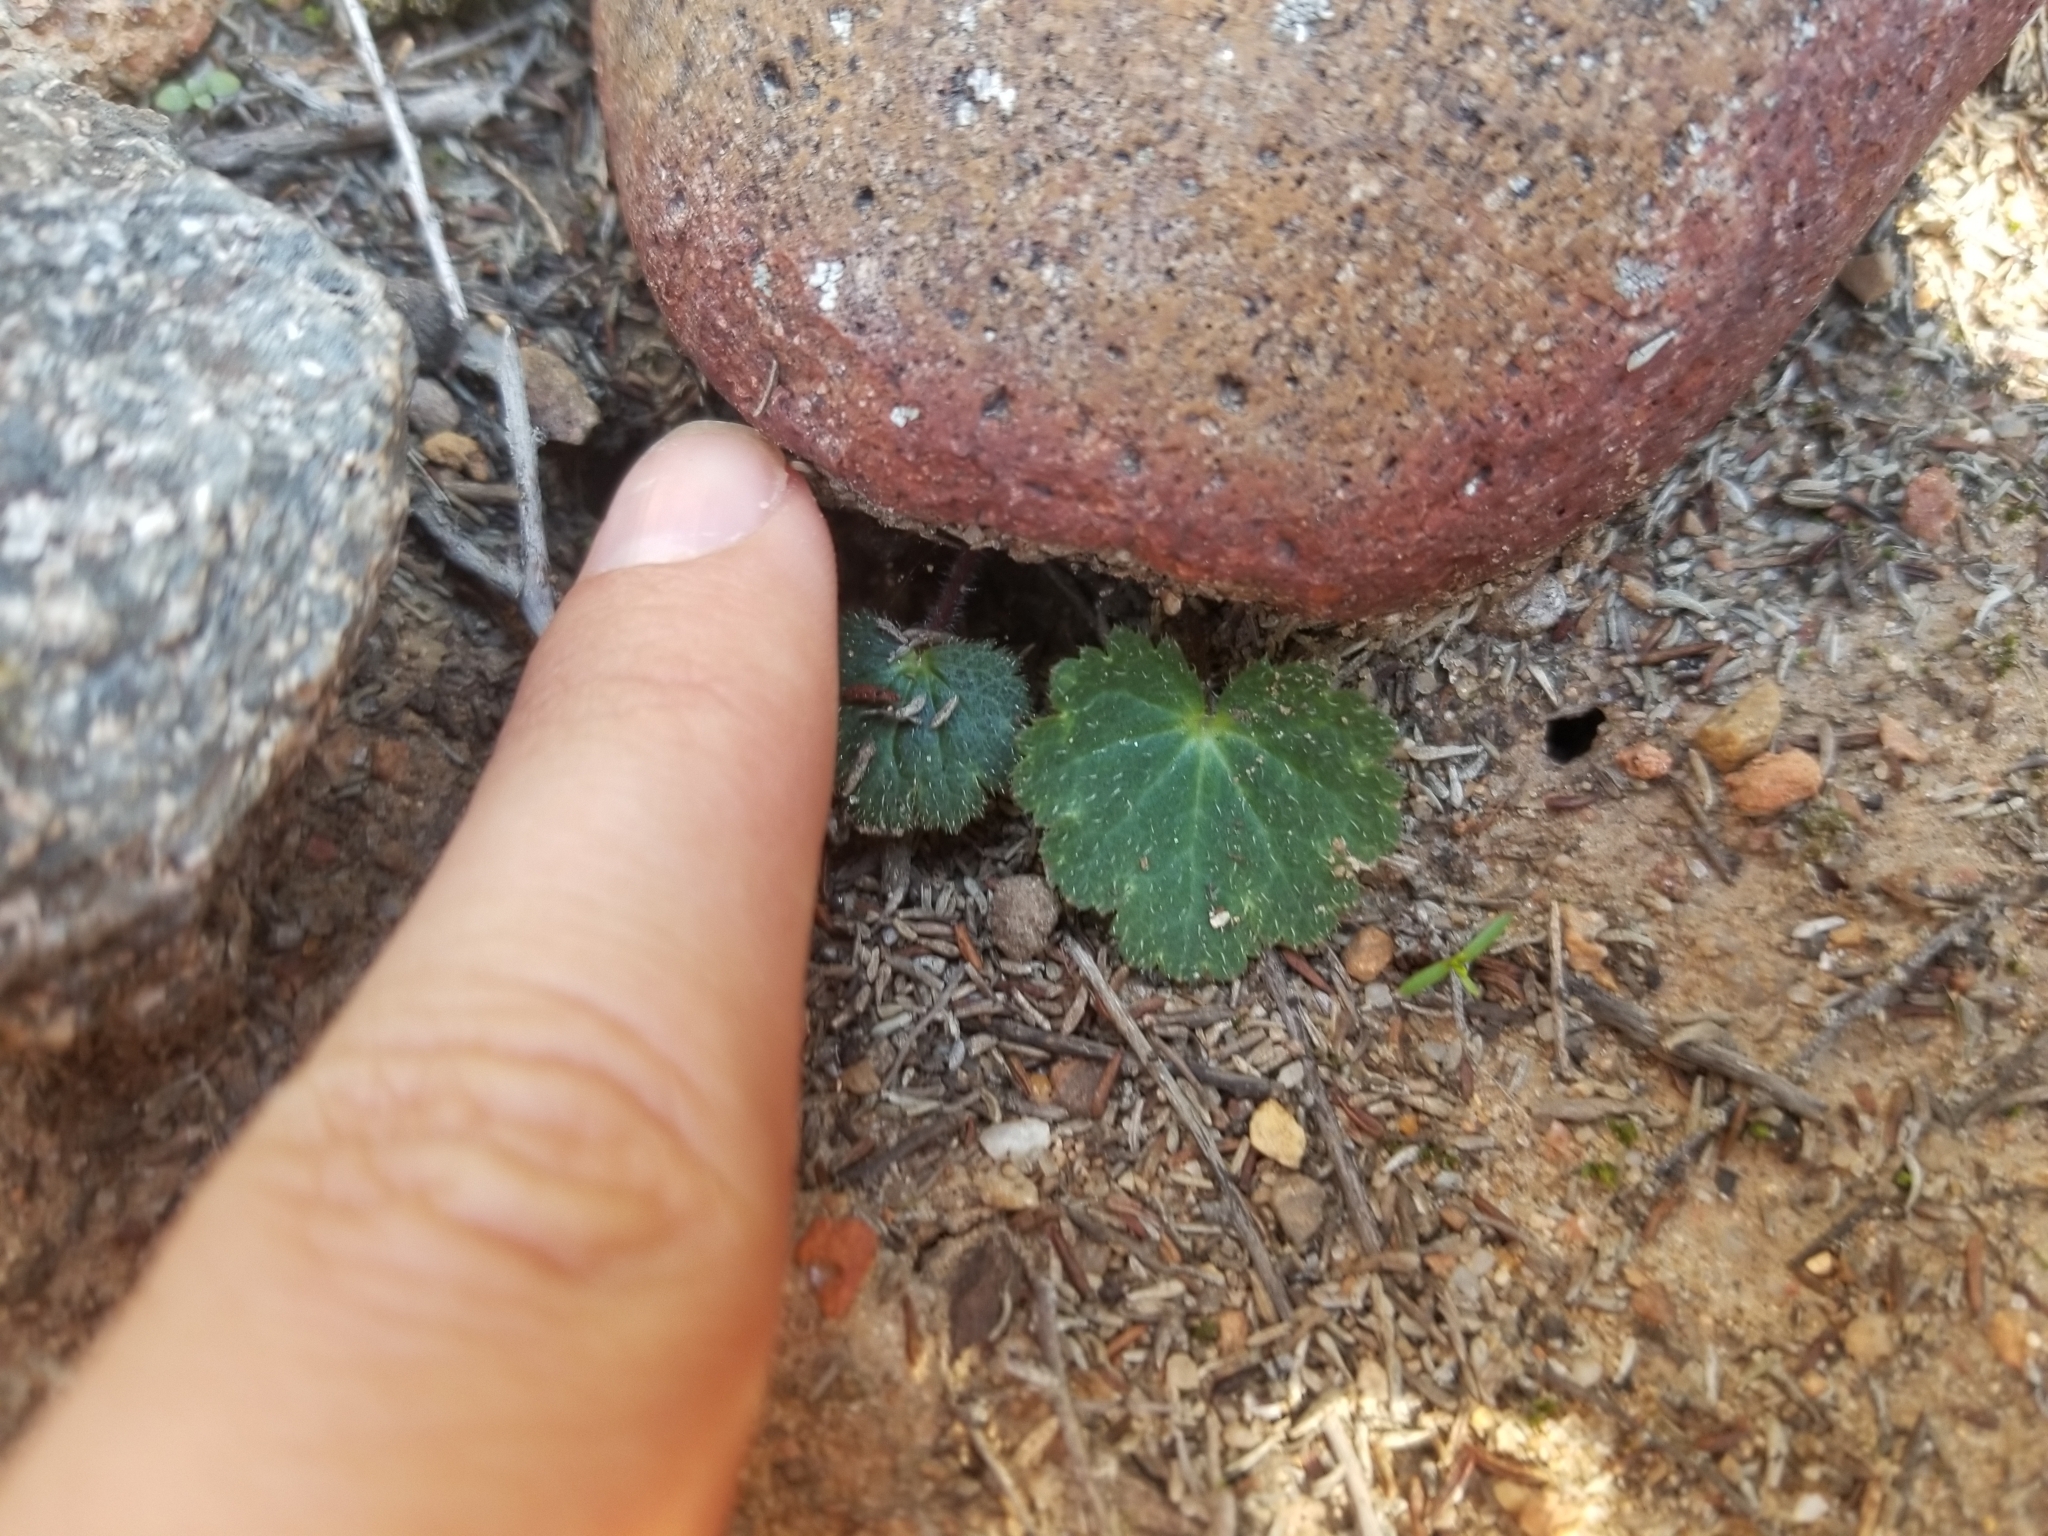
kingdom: Plantae
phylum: Tracheophyta
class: Magnoliopsida
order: Saxifragales
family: Saxifragaceae
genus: Jepsonia
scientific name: Jepsonia parryi
